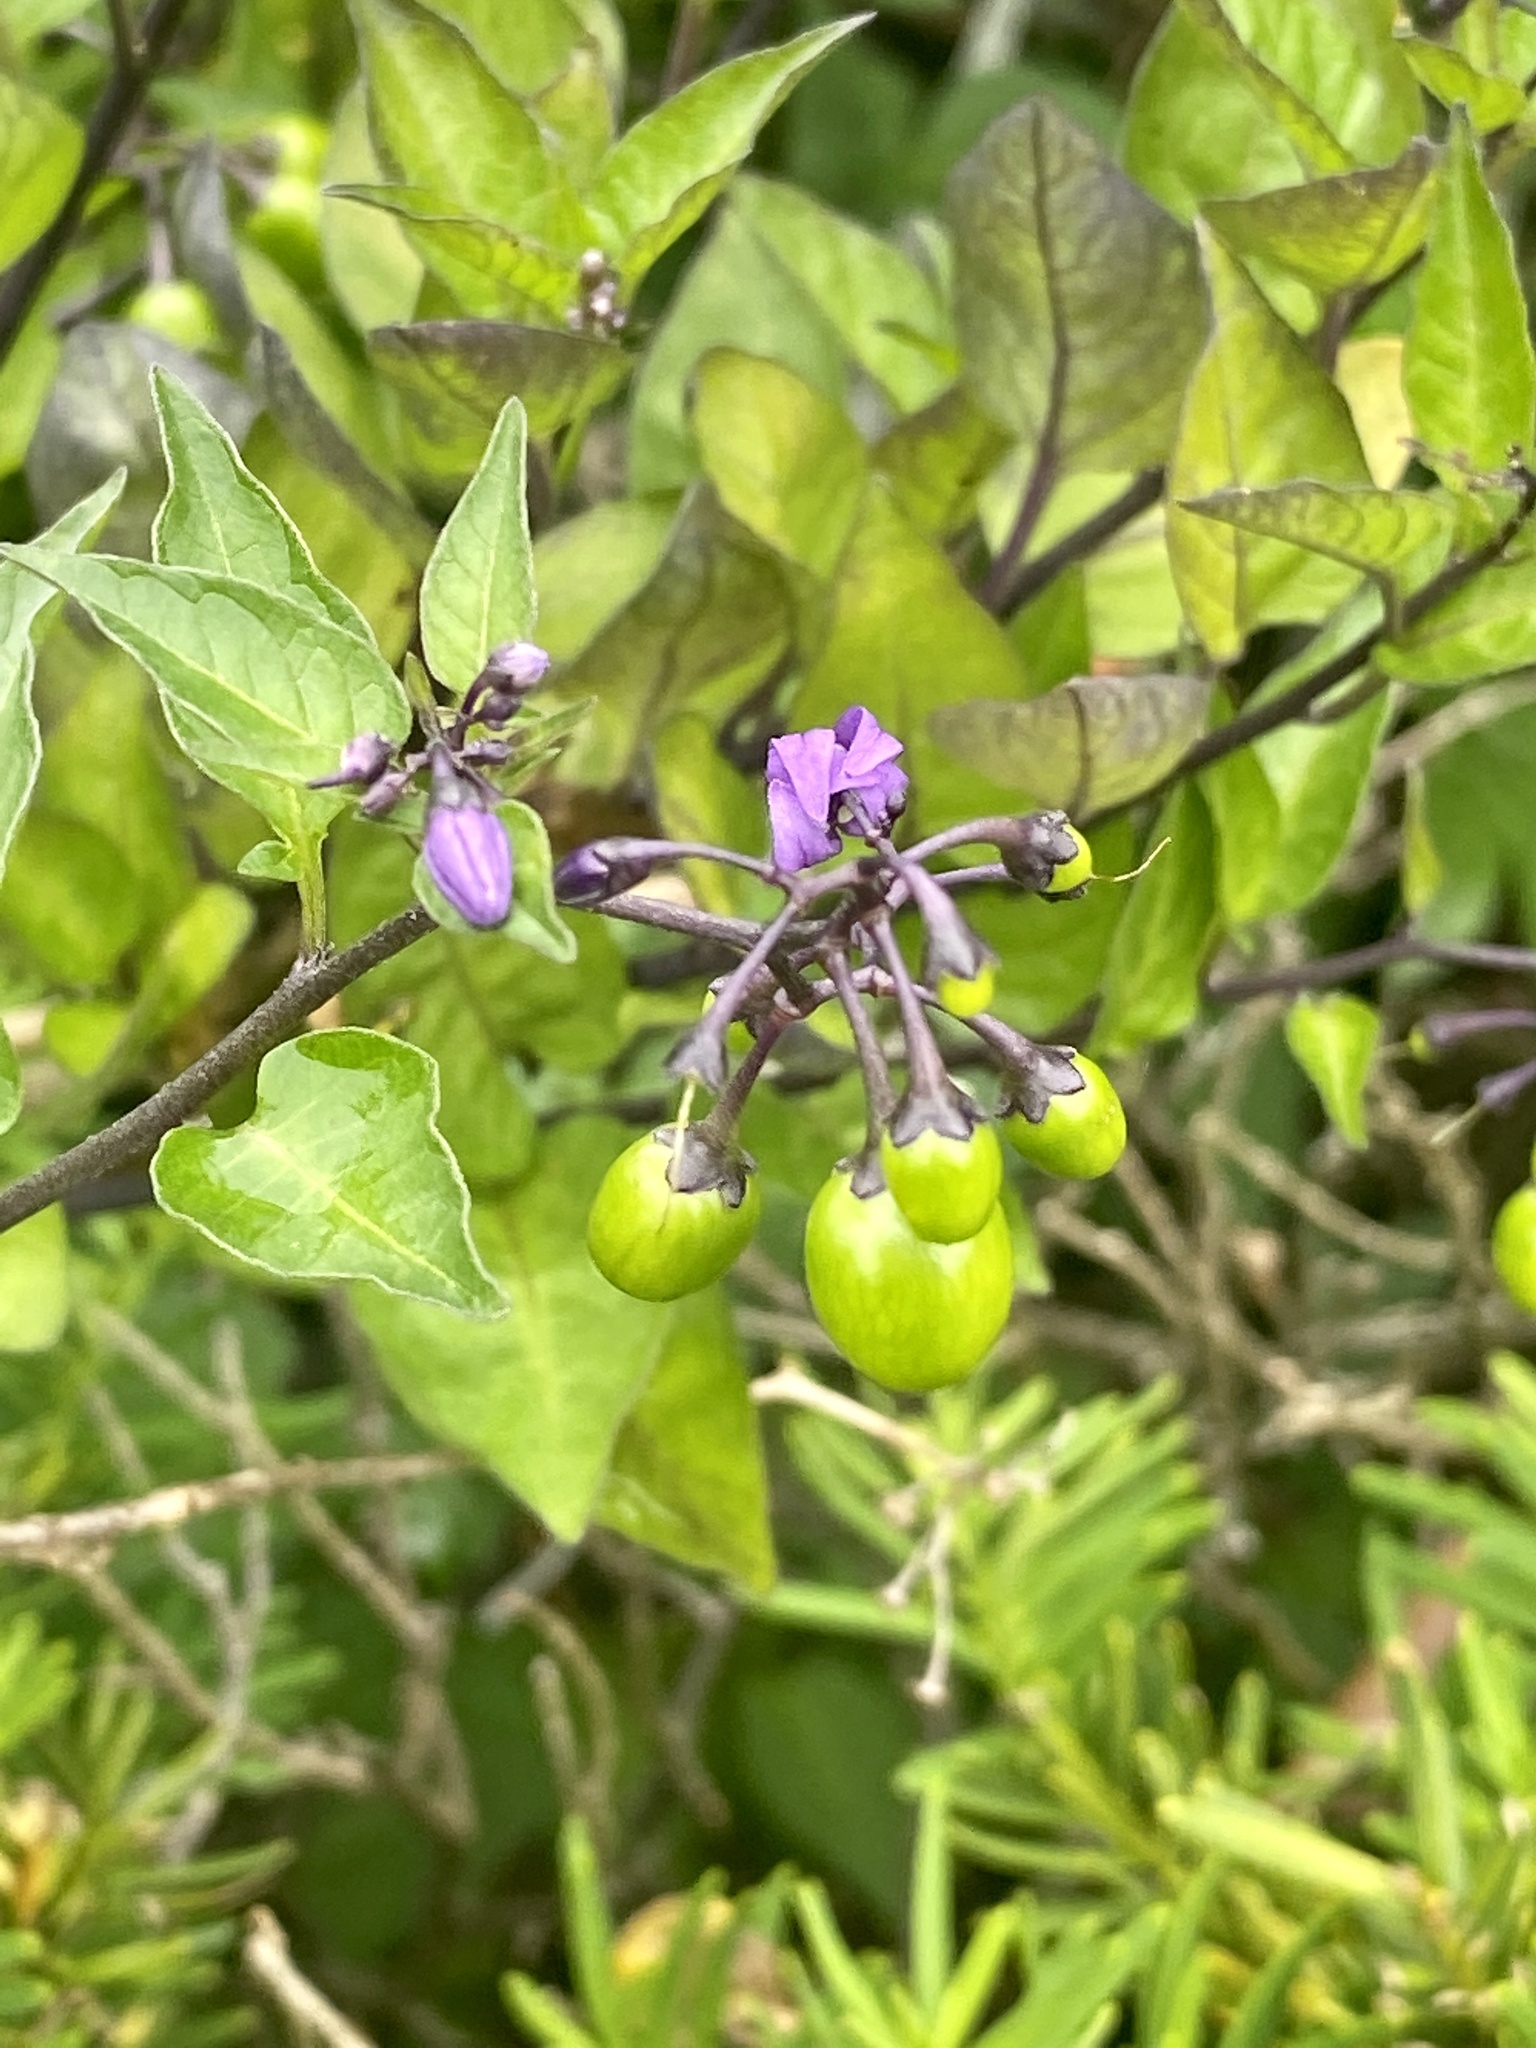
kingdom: Plantae
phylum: Tracheophyta
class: Magnoliopsida
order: Solanales
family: Solanaceae
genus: Solanum
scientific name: Solanum dulcamara
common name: Climbing nightshade
